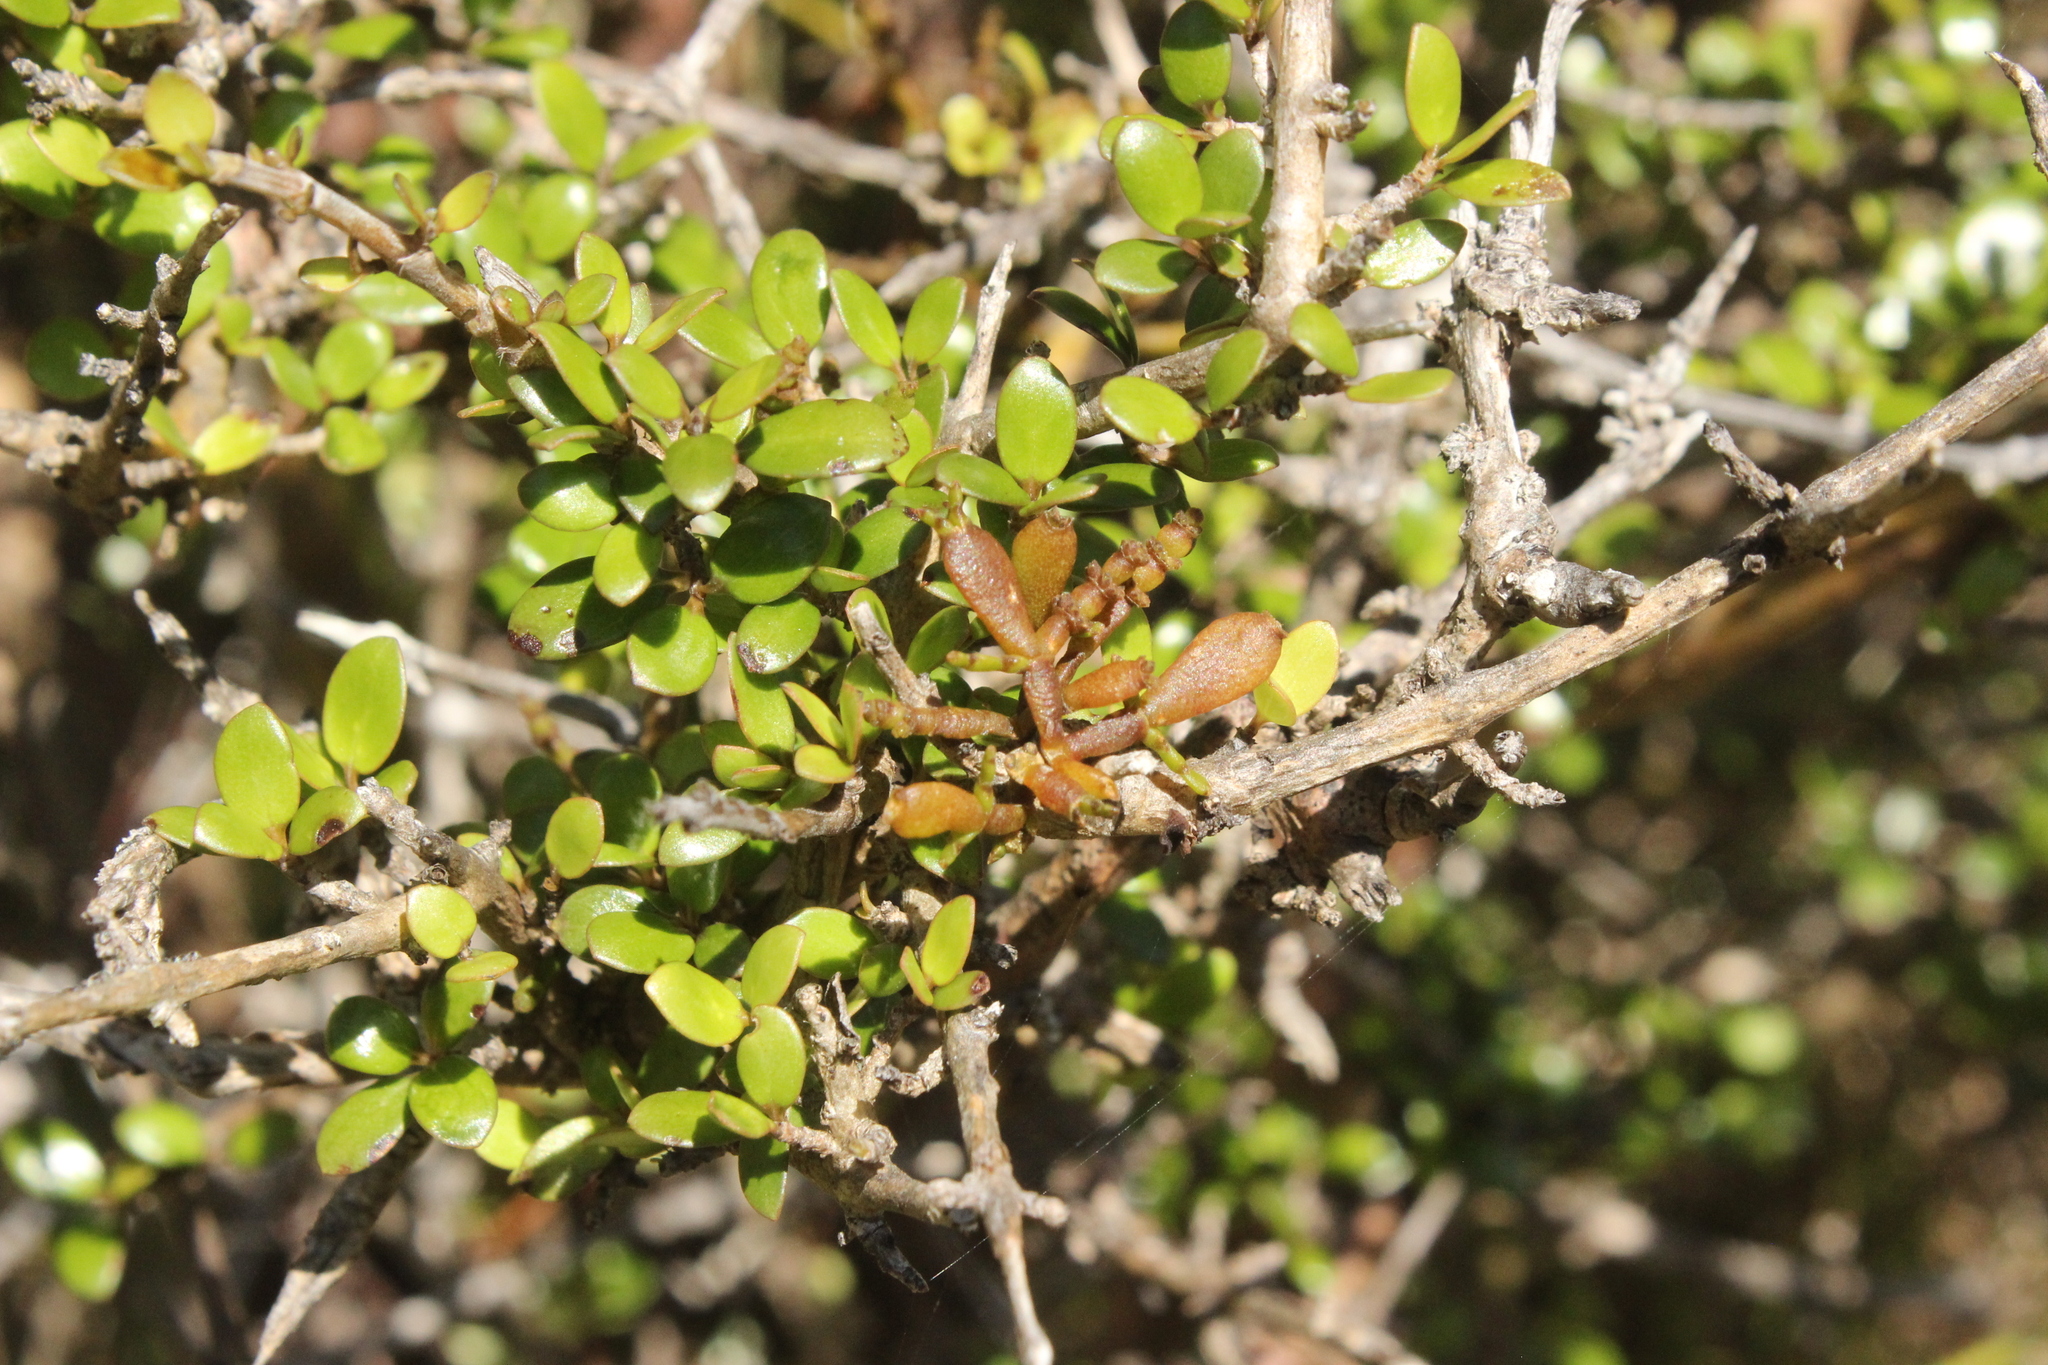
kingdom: Plantae
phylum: Tracheophyta
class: Magnoliopsida
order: Santalales
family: Viscaceae
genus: Korthalsella
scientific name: Korthalsella clavata
